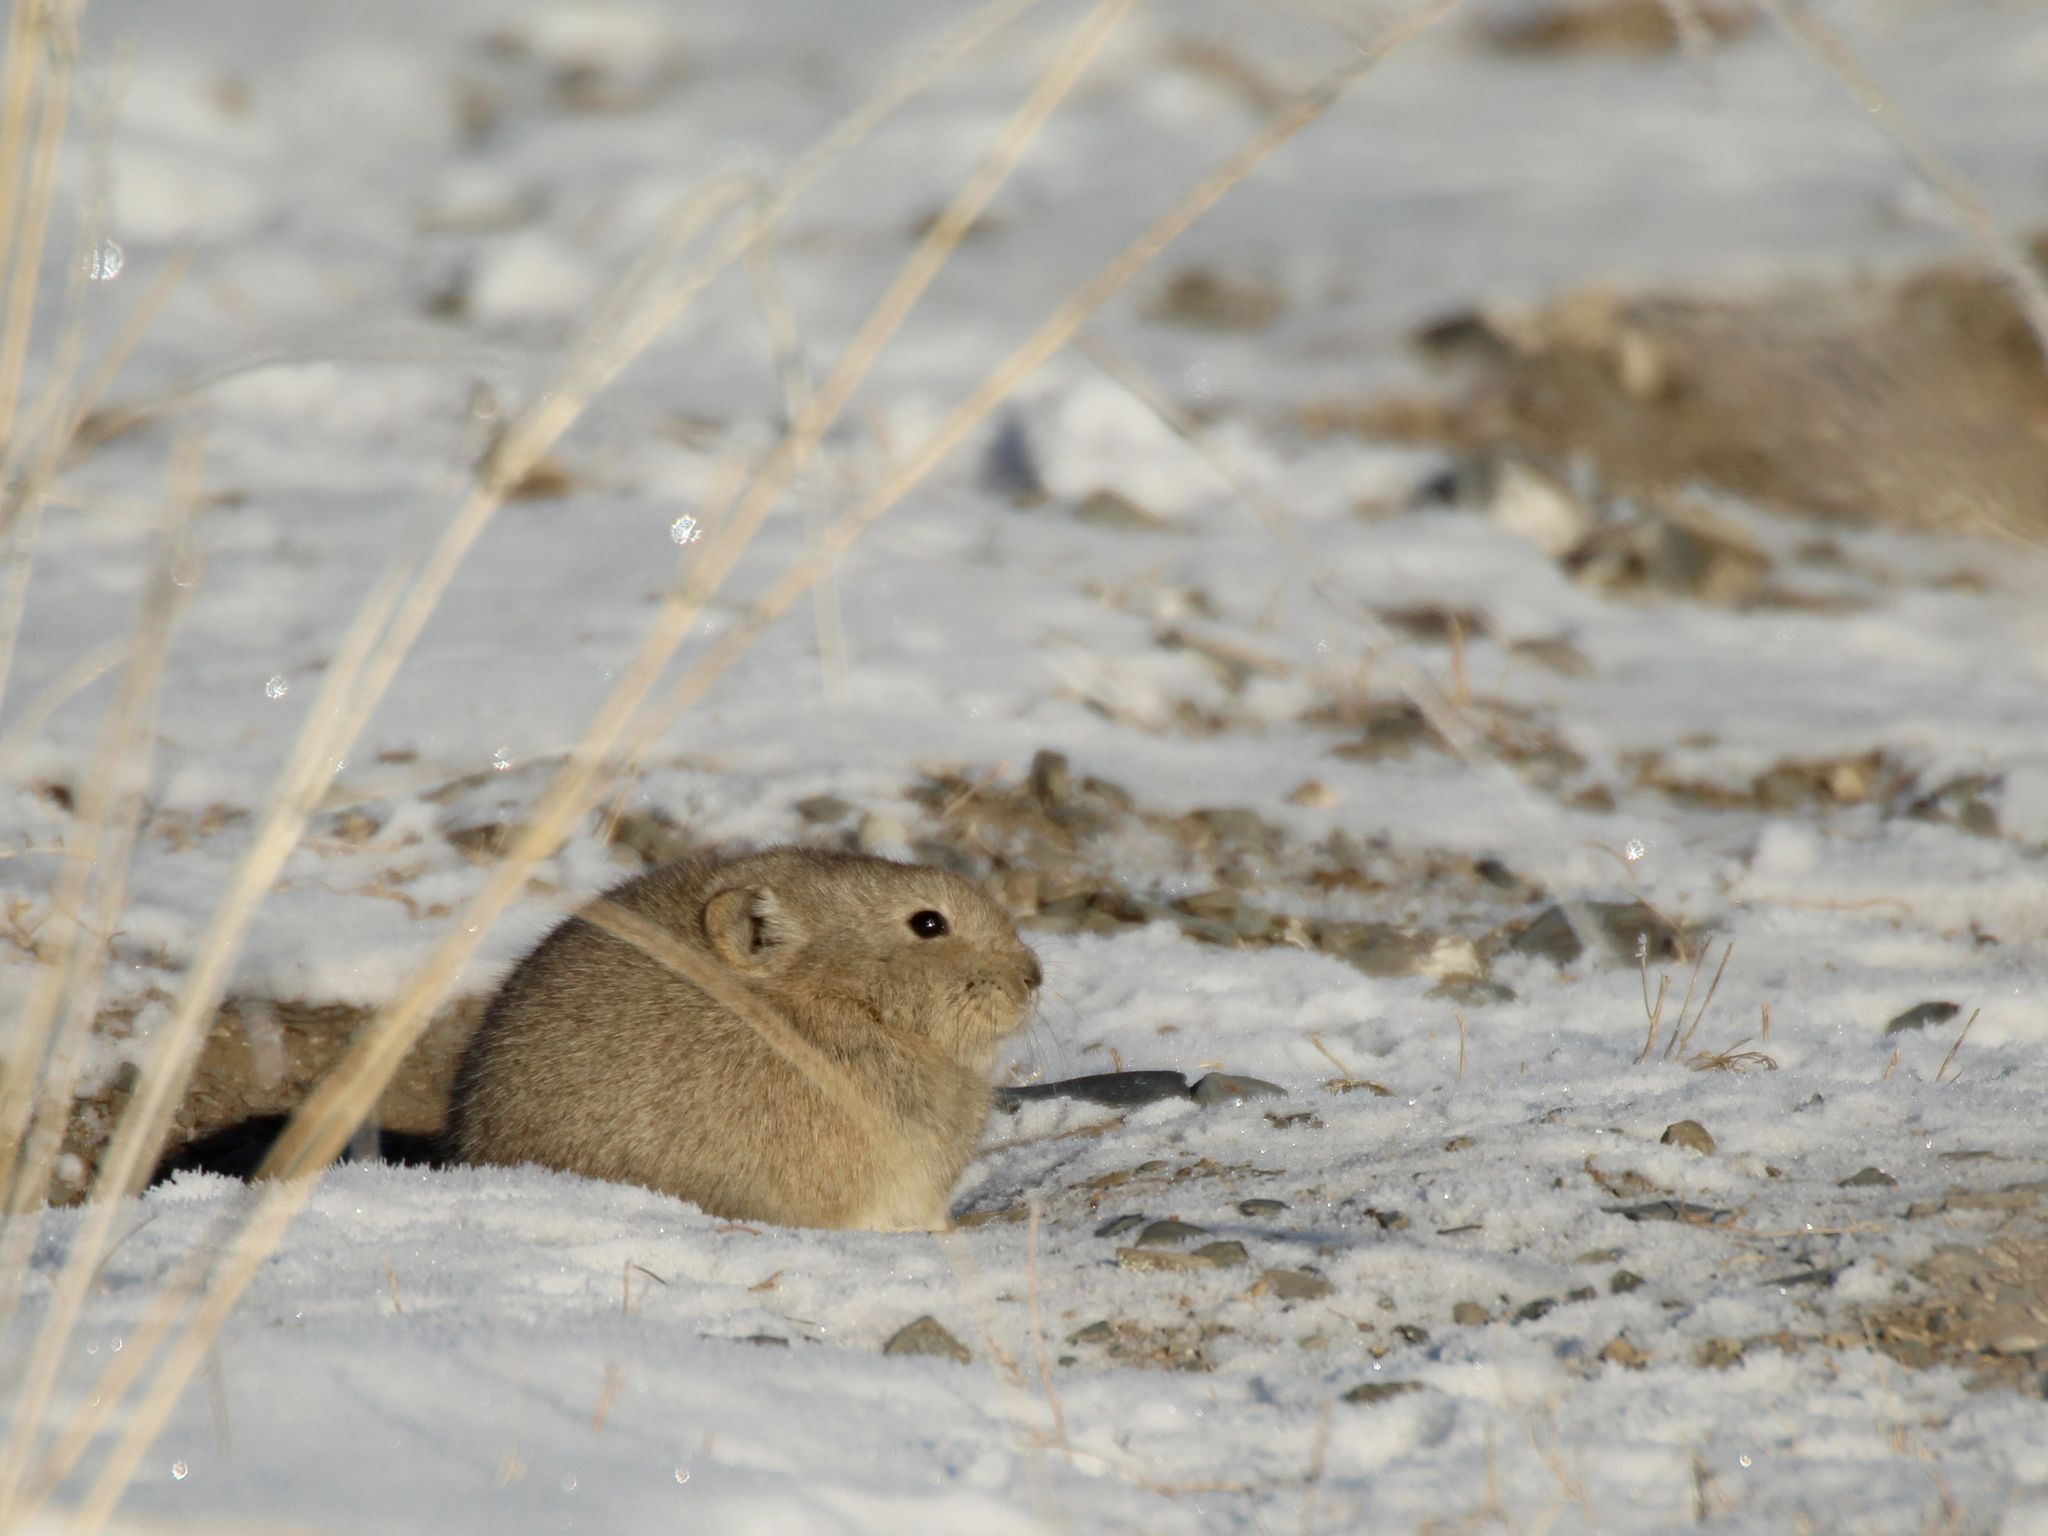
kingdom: Animalia
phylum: Chordata
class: Mammalia
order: Lagomorpha
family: Ochotonidae
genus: Ochotona
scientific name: Ochotona dauurica
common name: Daurian pika
